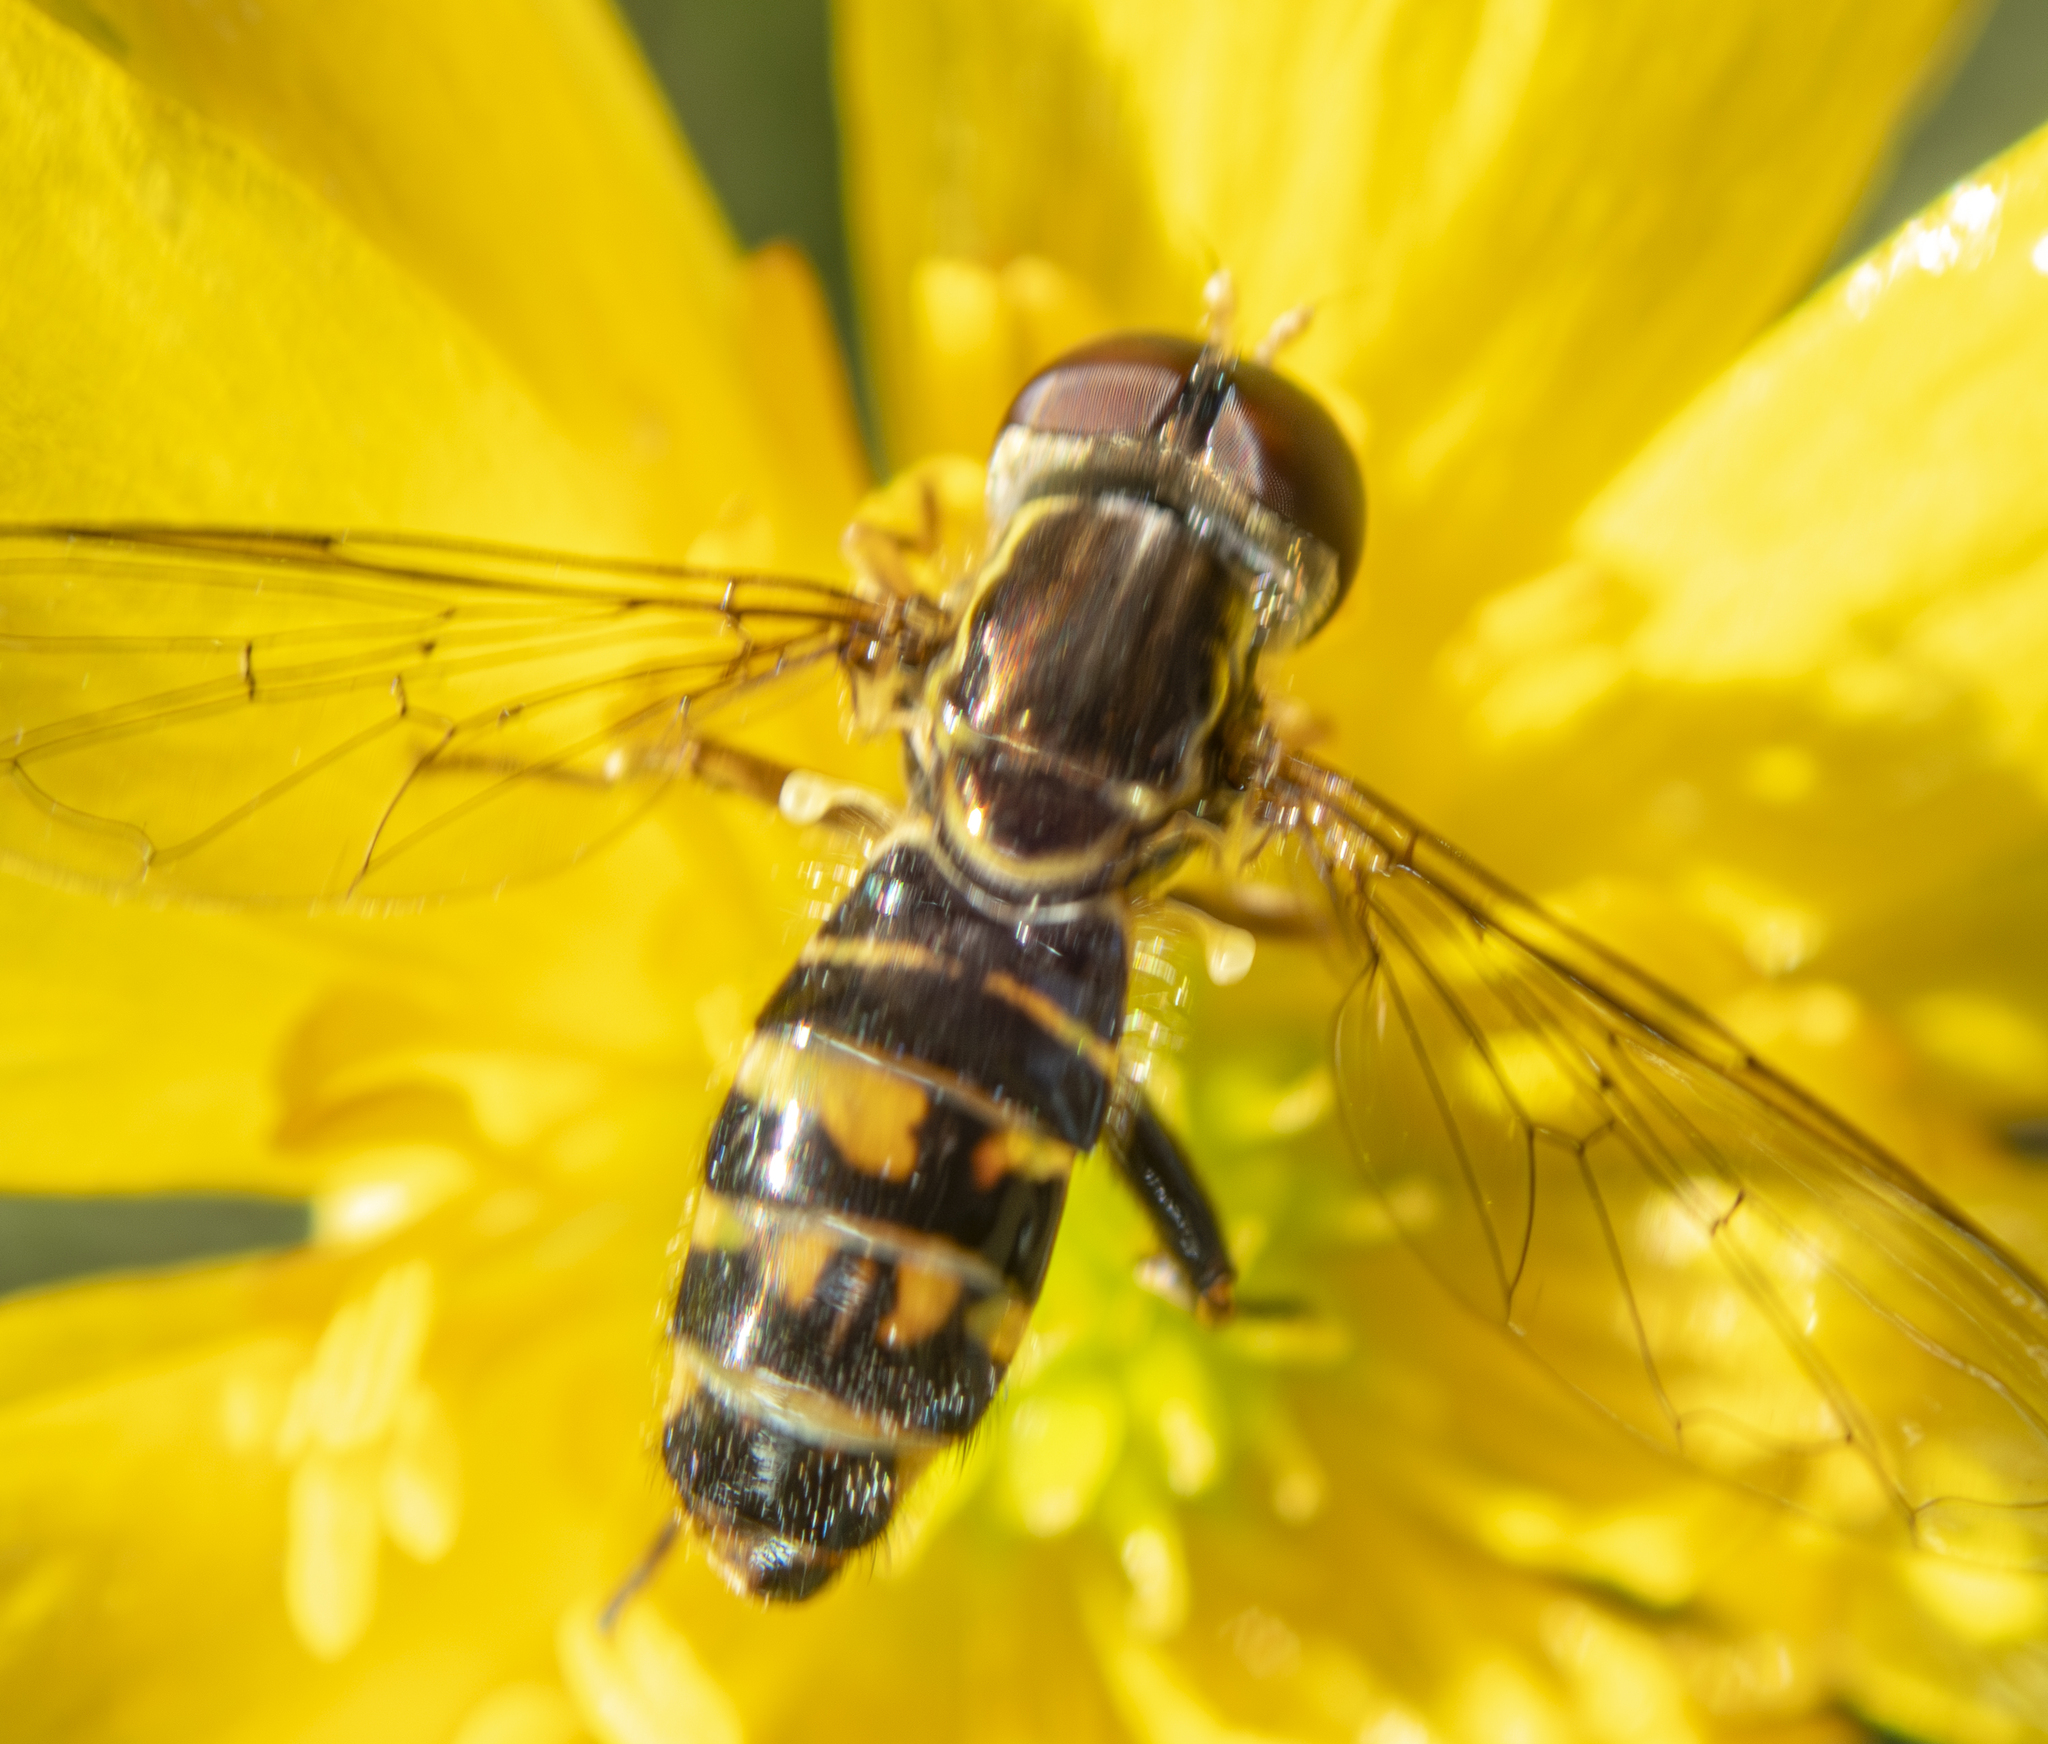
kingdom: Animalia
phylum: Arthropoda
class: Insecta
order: Diptera
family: Syrphidae
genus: Toxomerus
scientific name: Toxomerus occidentalis
